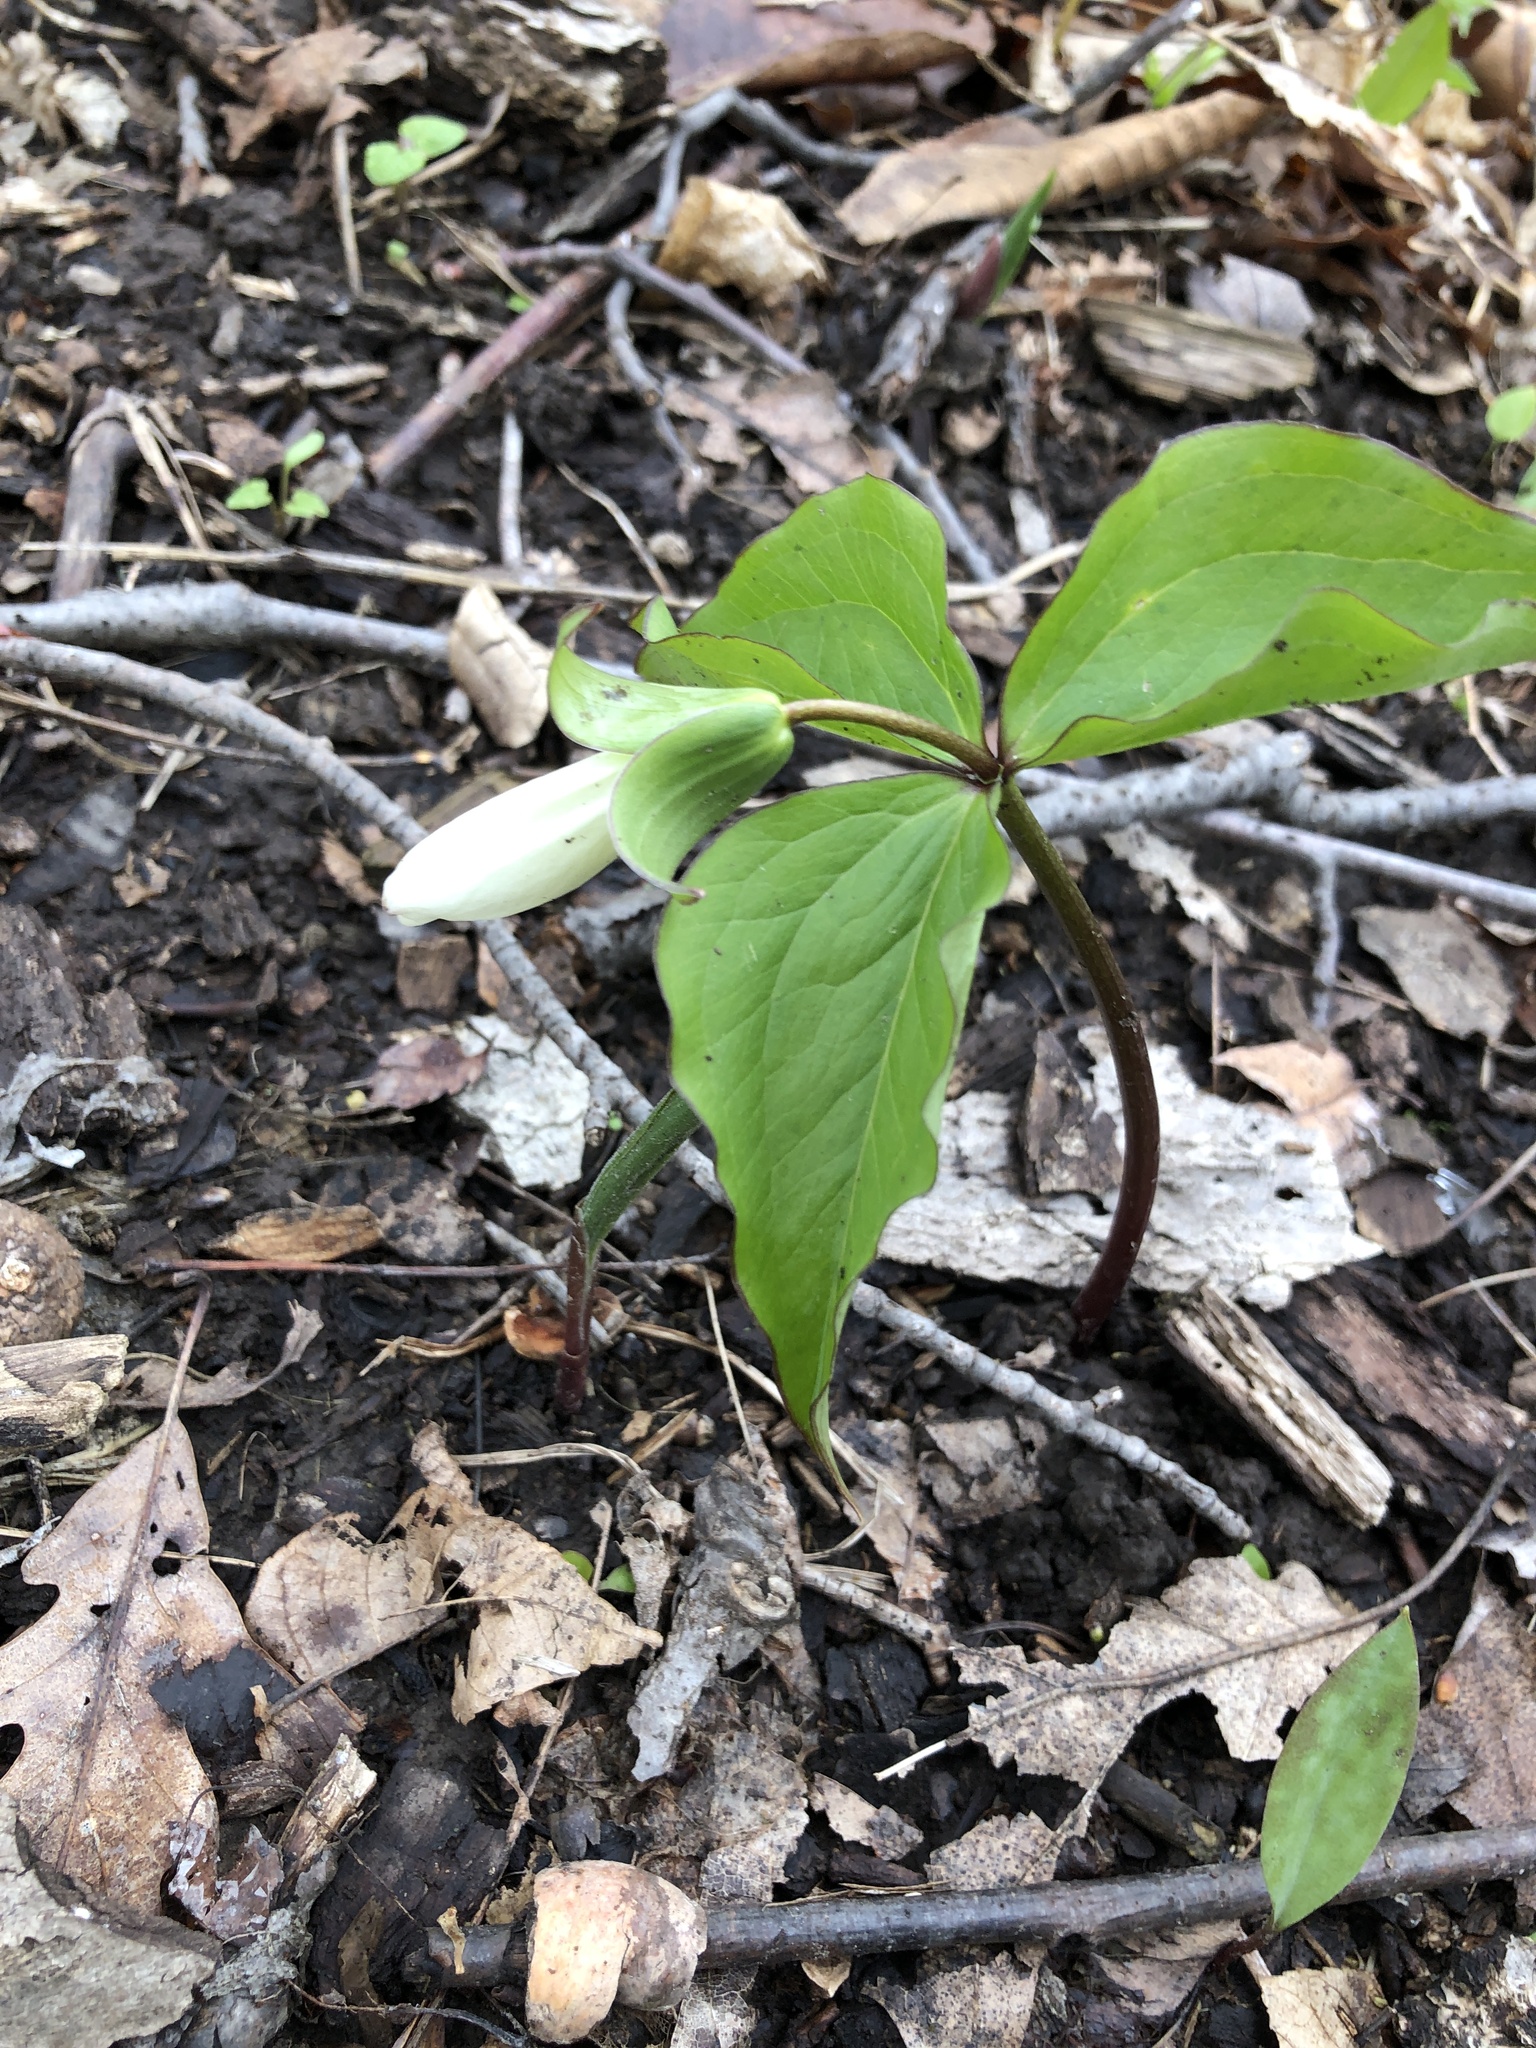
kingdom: Plantae
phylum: Tracheophyta
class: Liliopsida
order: Liliales
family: Melanthiaceae
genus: Trillium
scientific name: Trillium grandiflorum
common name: Great white trillium
